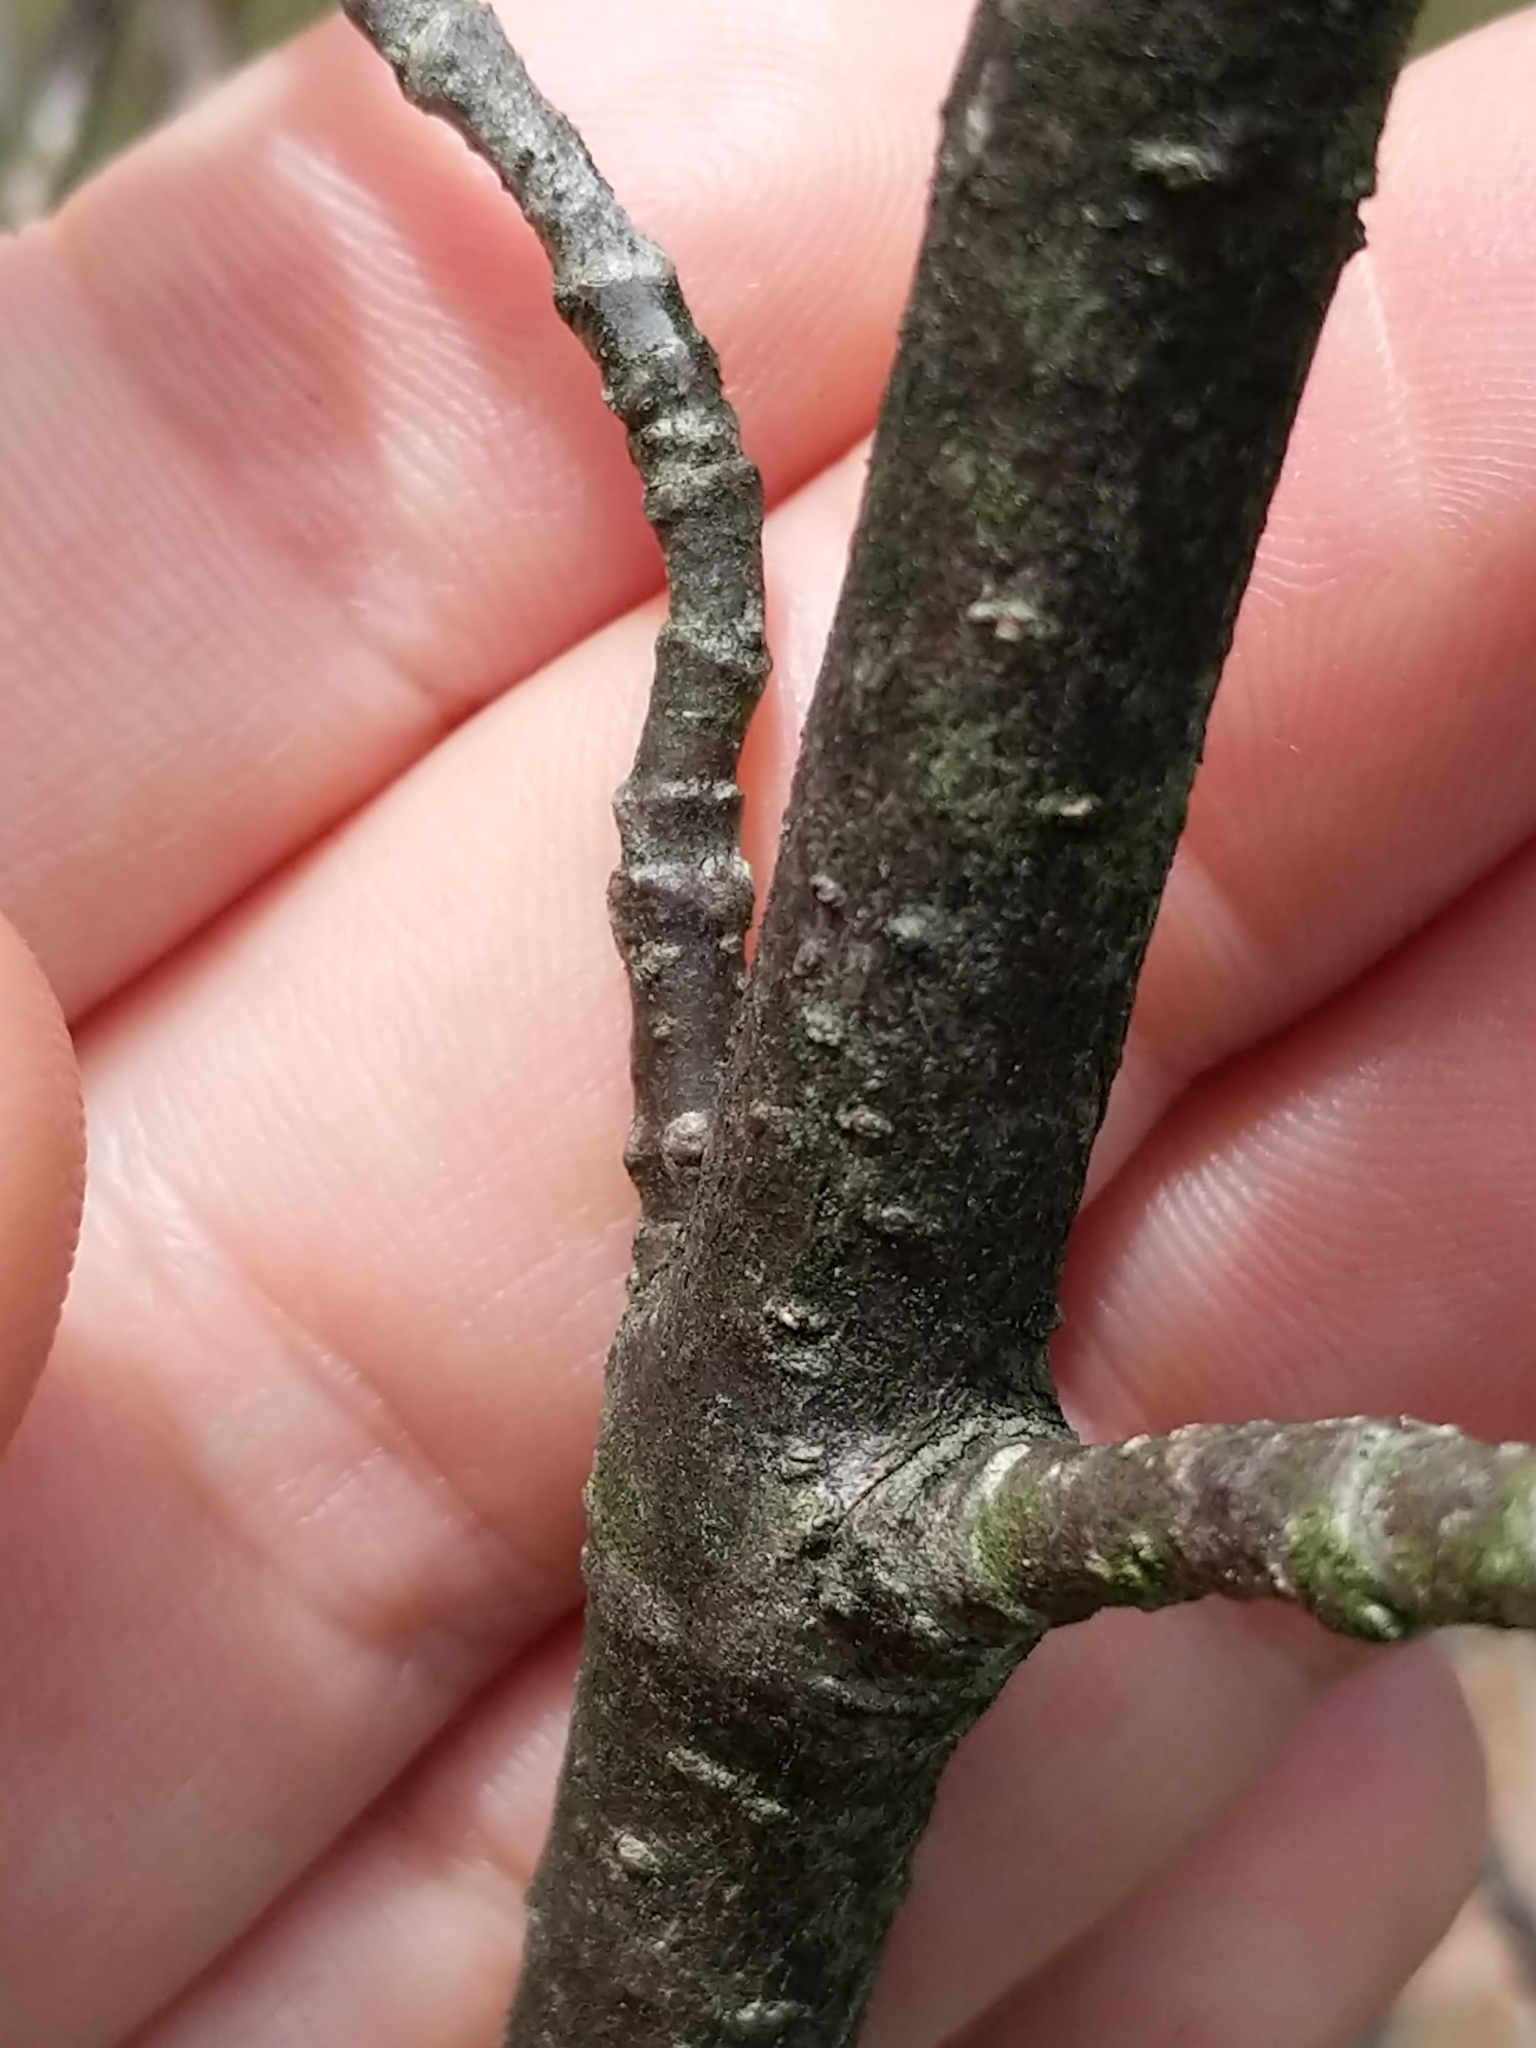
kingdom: Plantae
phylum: Tracheophyta
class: Magnoliopsida
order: Dipsacales
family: Viburnaceae
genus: Viburnum
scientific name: Viburnum cassinoides
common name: Swamp haw
